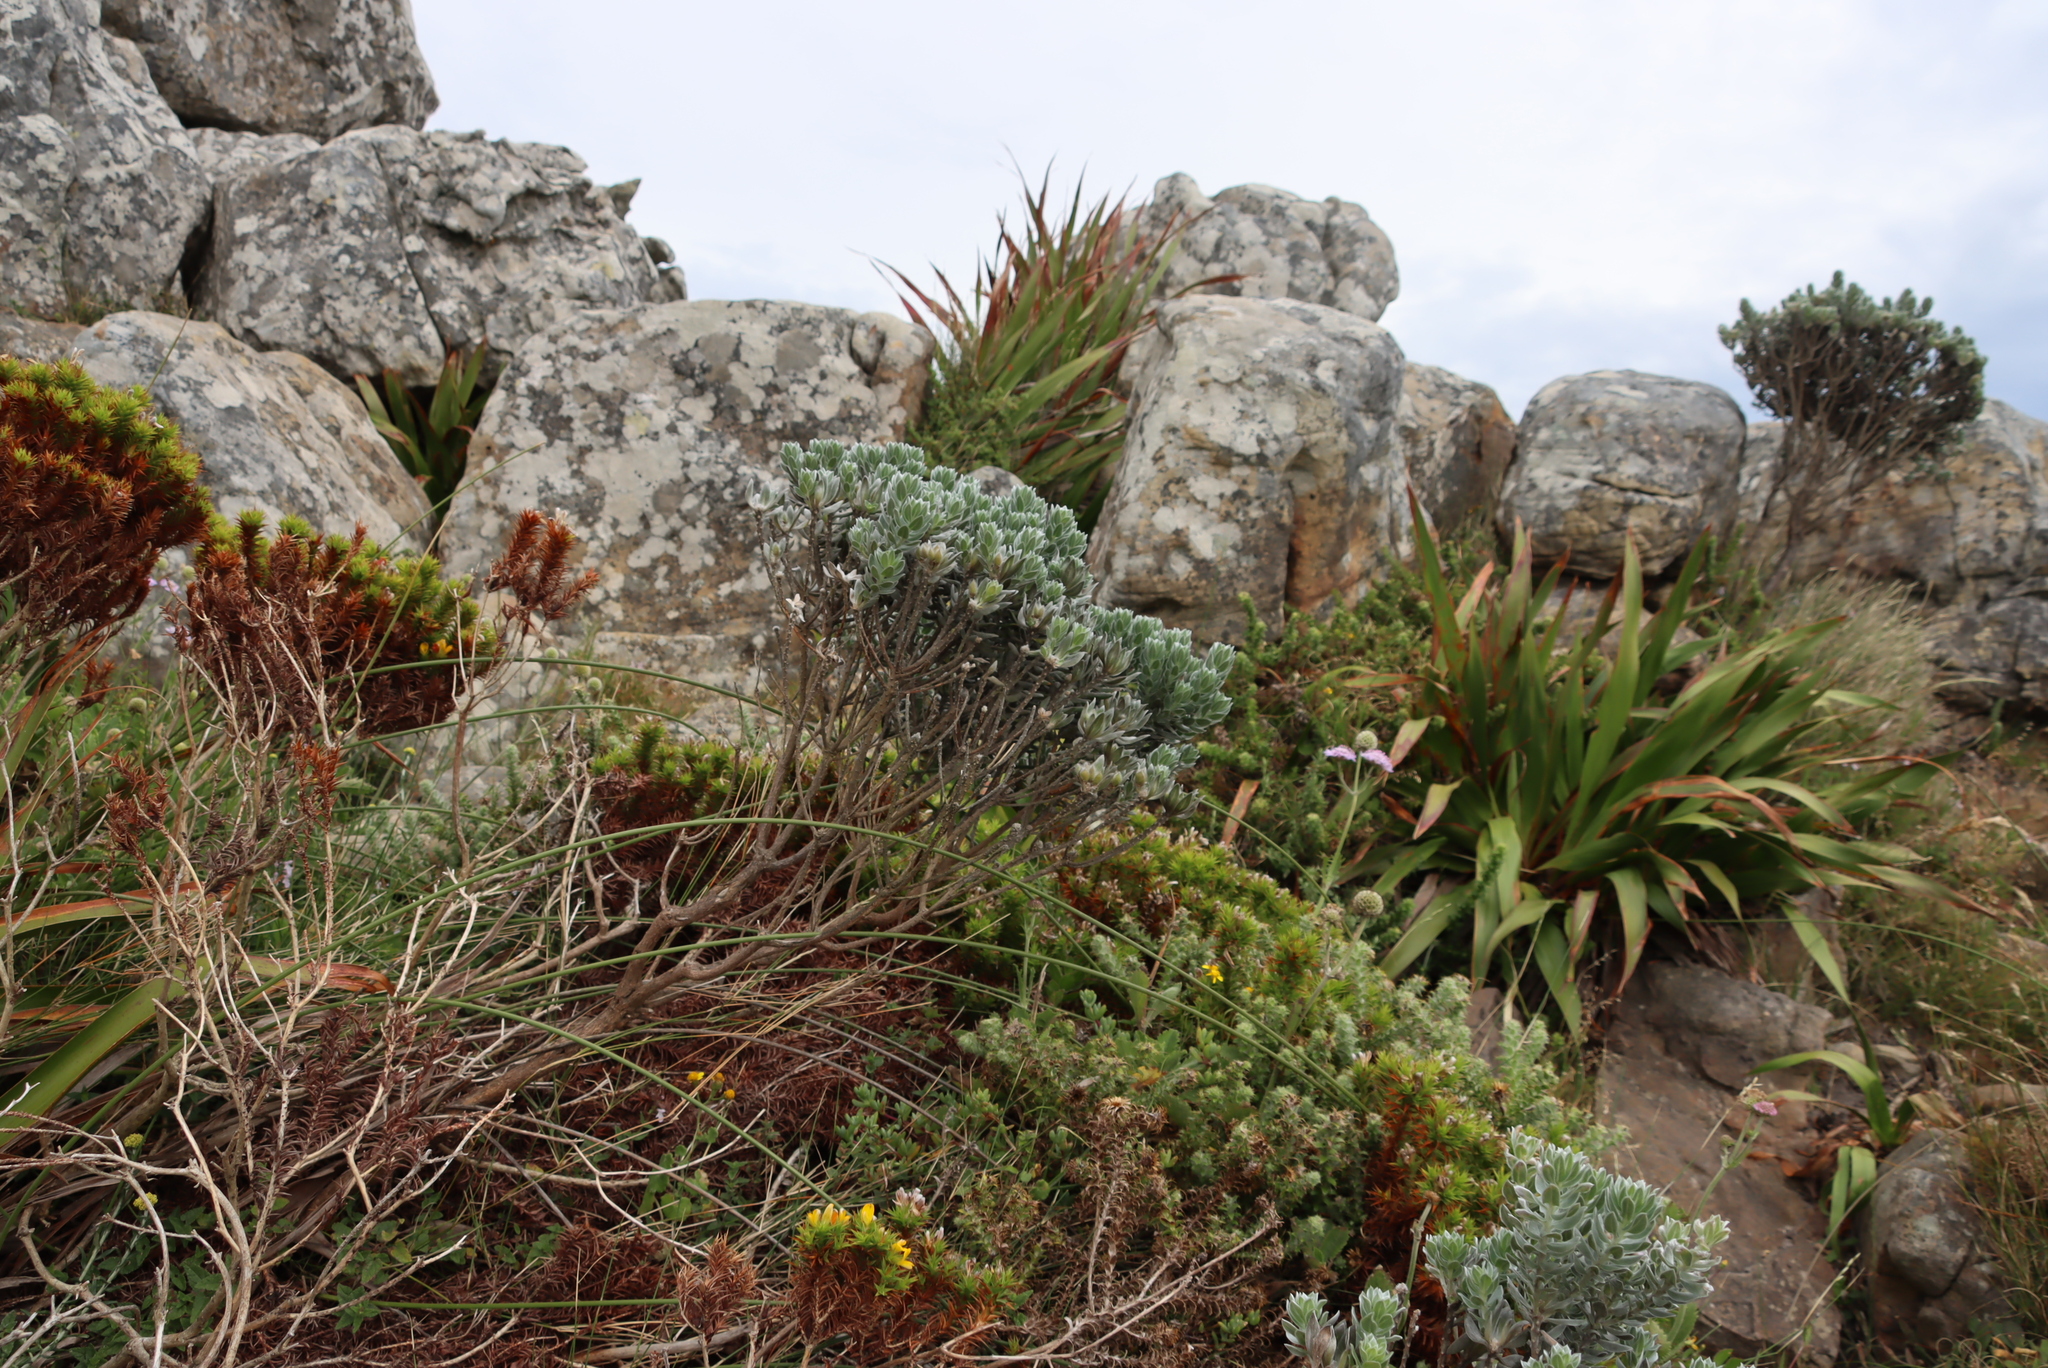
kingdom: Plantae
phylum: Tracheophyta
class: Magnoliopsida
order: Fabales
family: Fabaceae
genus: Xiphotheca
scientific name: Xiphotheca fruticosa
